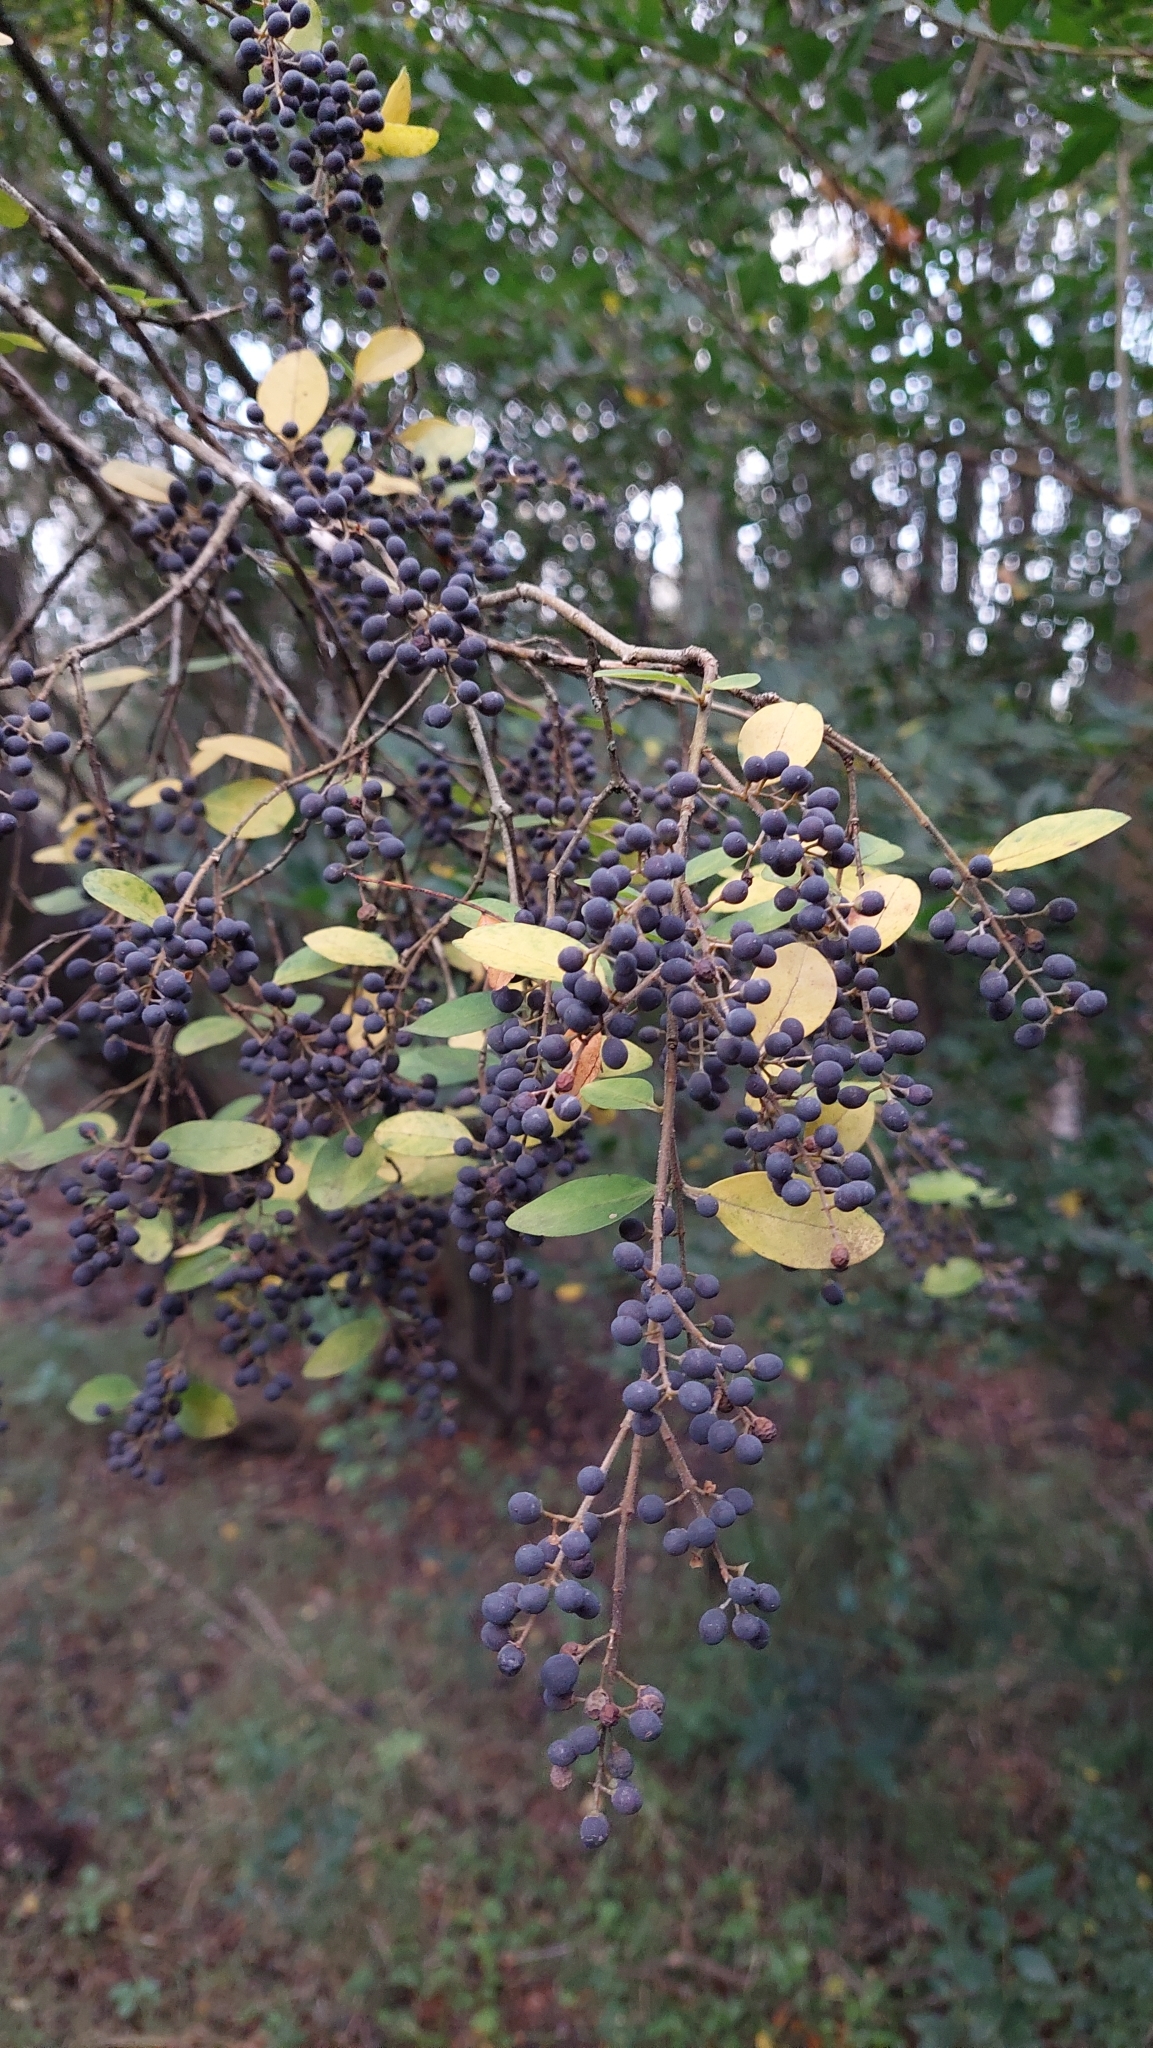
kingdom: Plantae
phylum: Tracheophyta
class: Magnoliopsida
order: Lamiales
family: Oleaceae
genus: Ligustrum
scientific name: Ligustrum sinense
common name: Chinese privet
